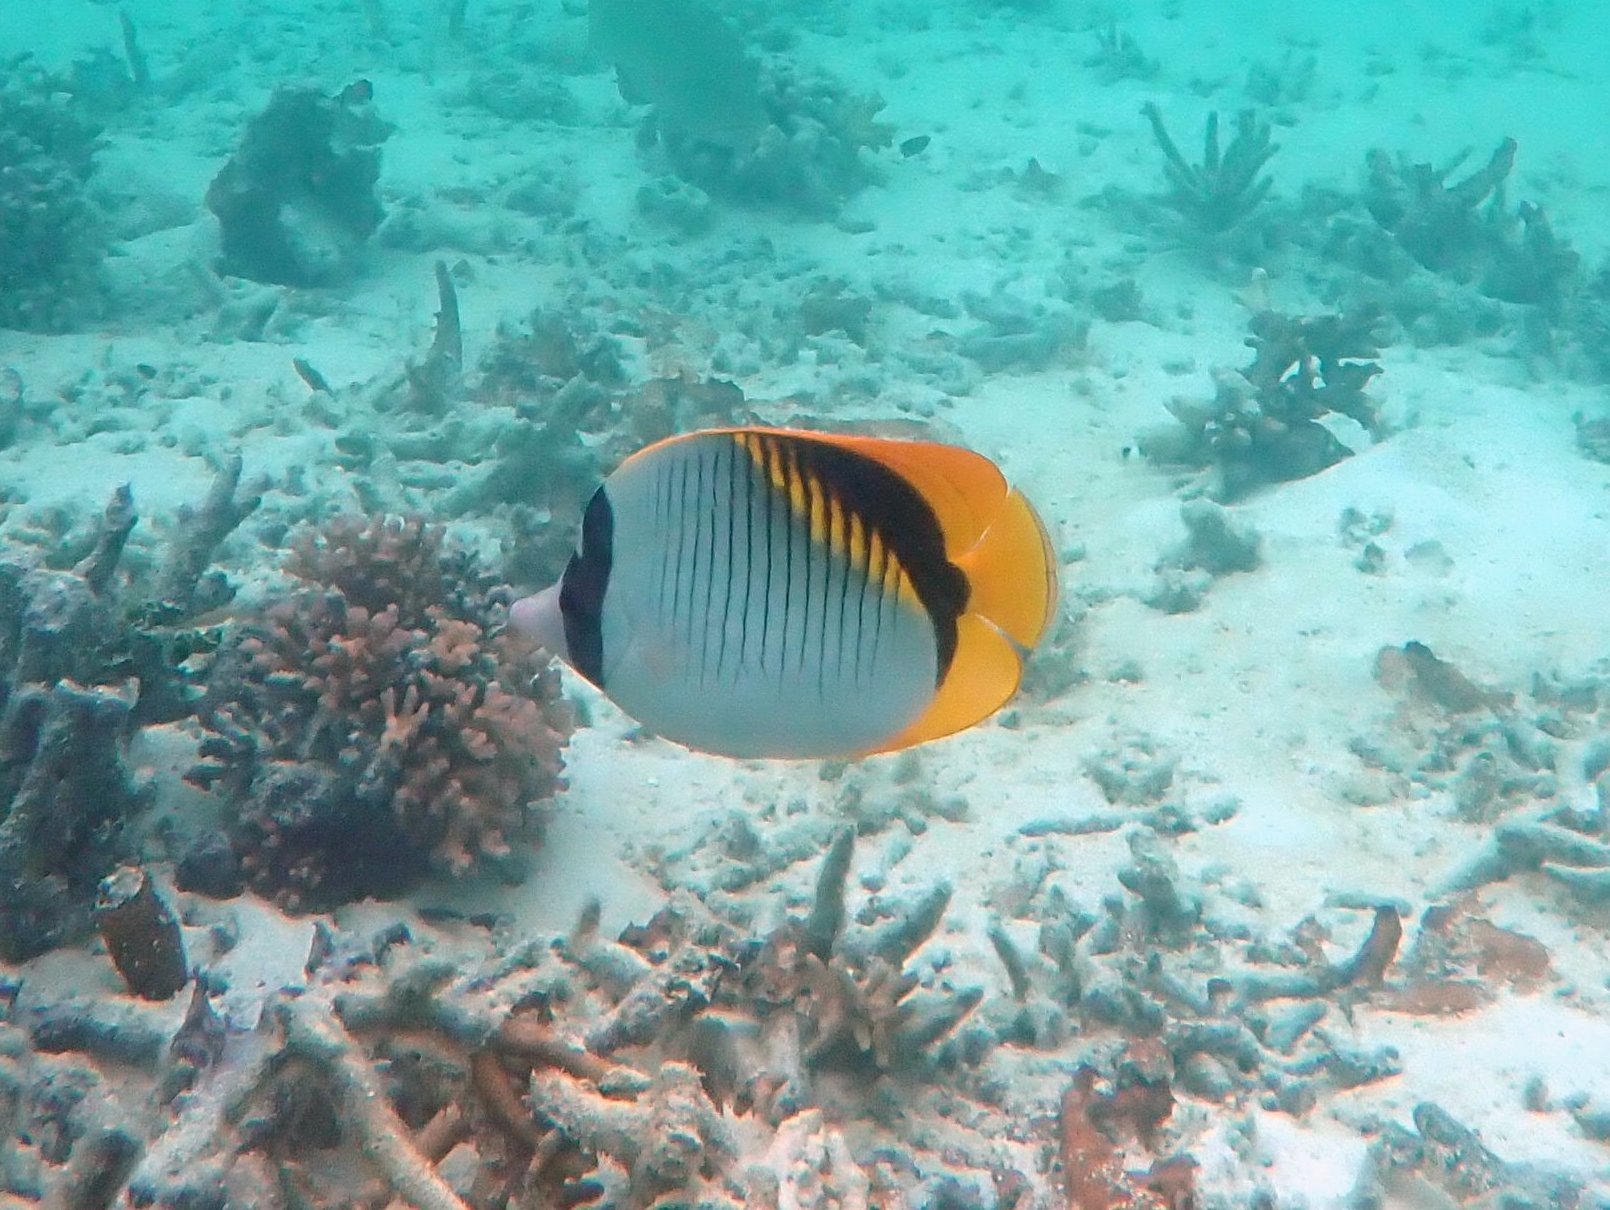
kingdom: Animalia
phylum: Chordata
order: Perciformes
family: Chaetodontidae
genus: Chaetodon
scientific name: Chaetodon lineolatus
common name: Lined butterflyfish
